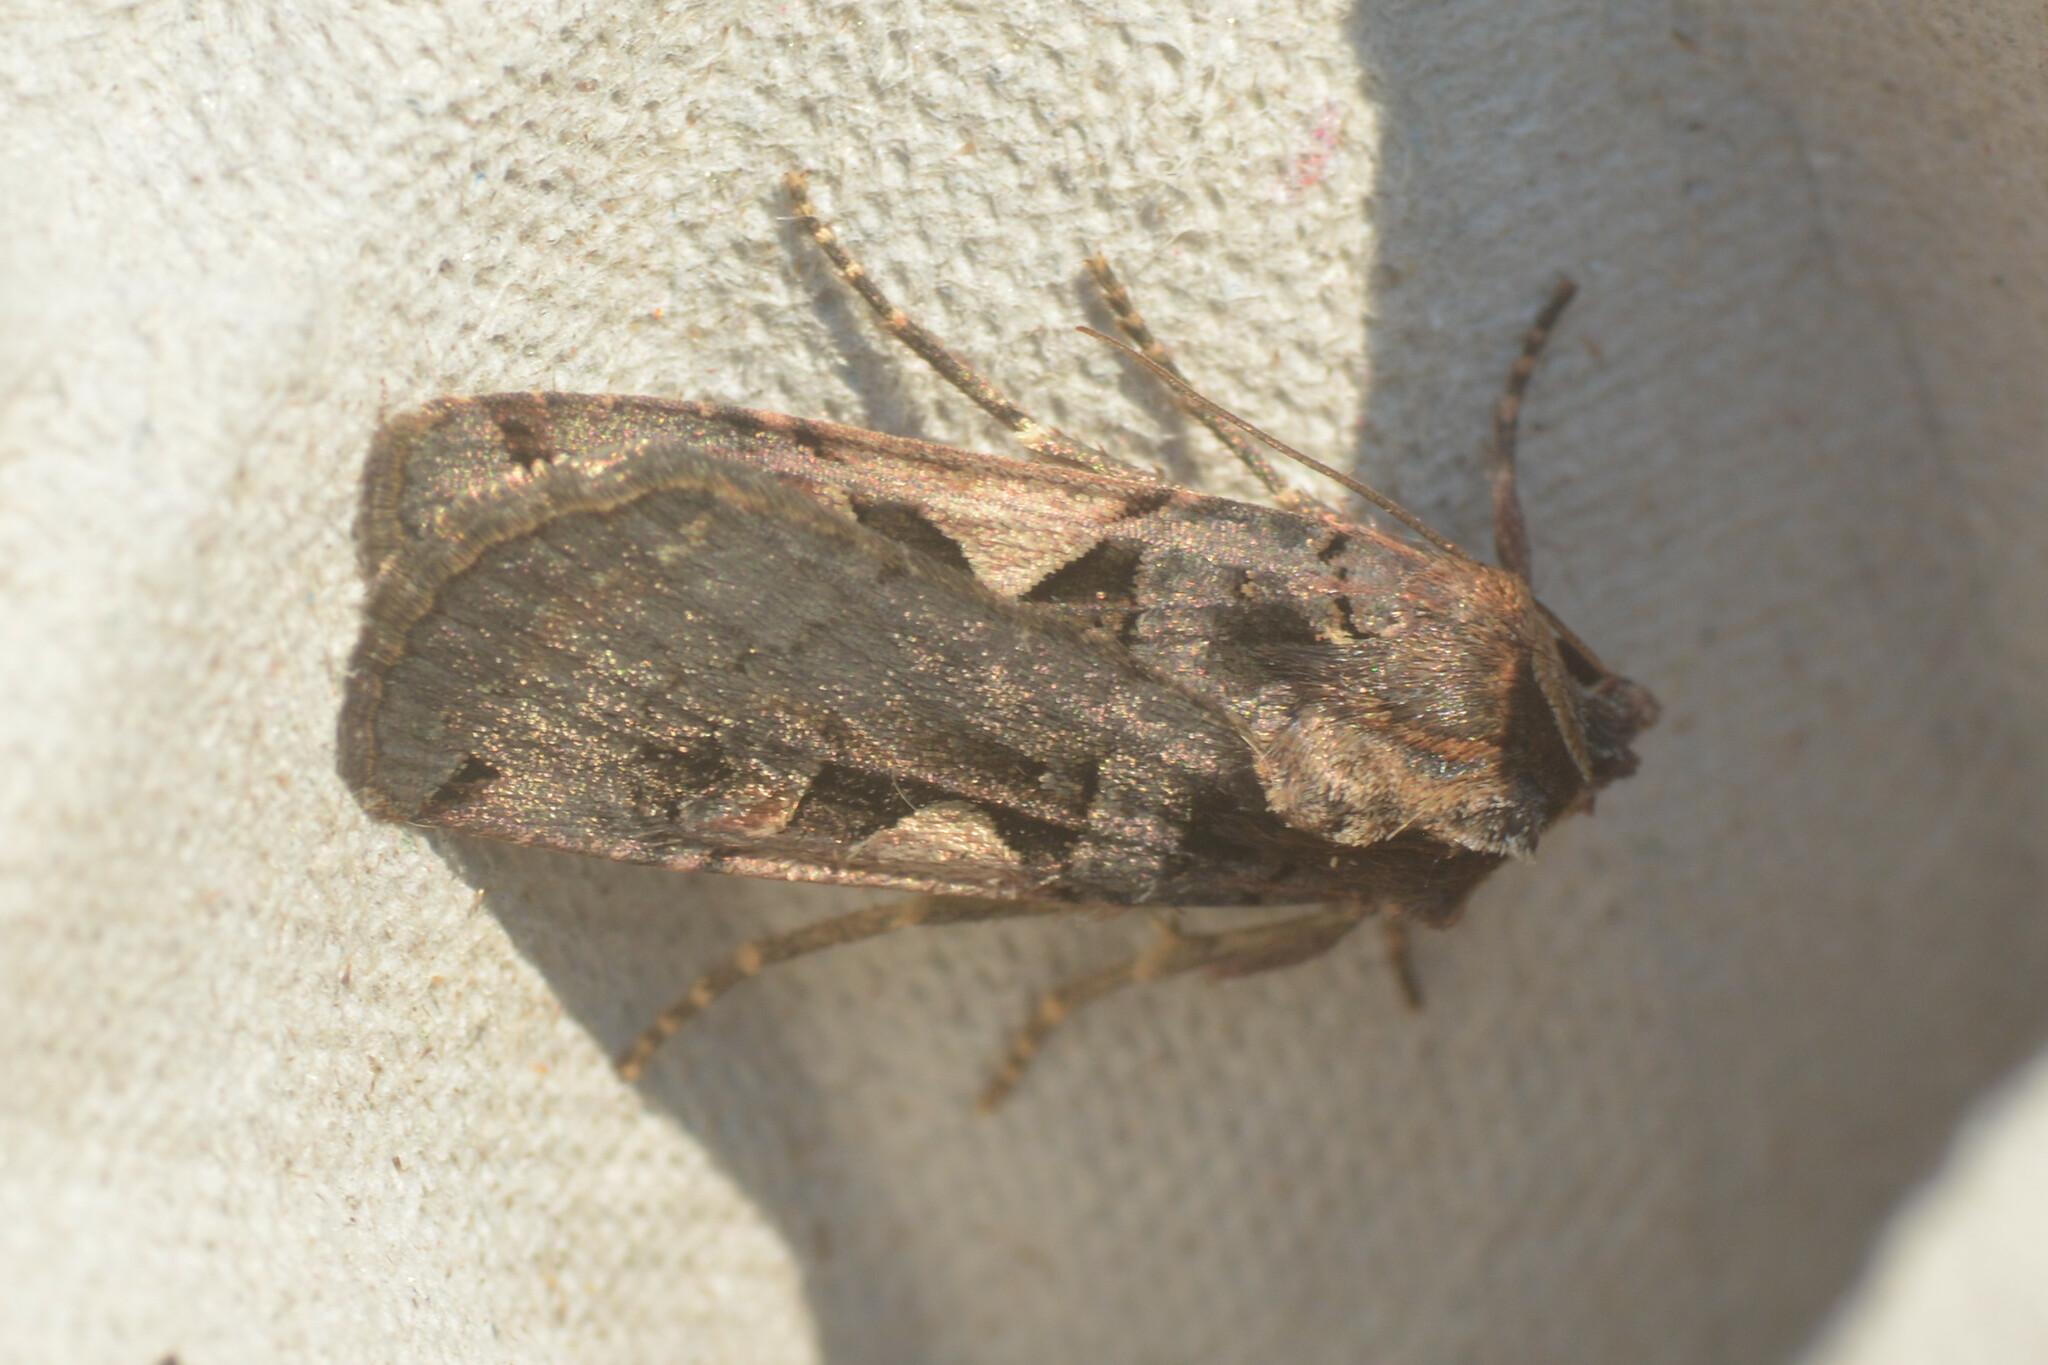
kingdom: Animalia
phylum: Arthropoda
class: Insecta
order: Lepidoptera
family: Noctuidae
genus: Xestia
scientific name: Xestia c-nigrum
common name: Setaceous hebrew character
